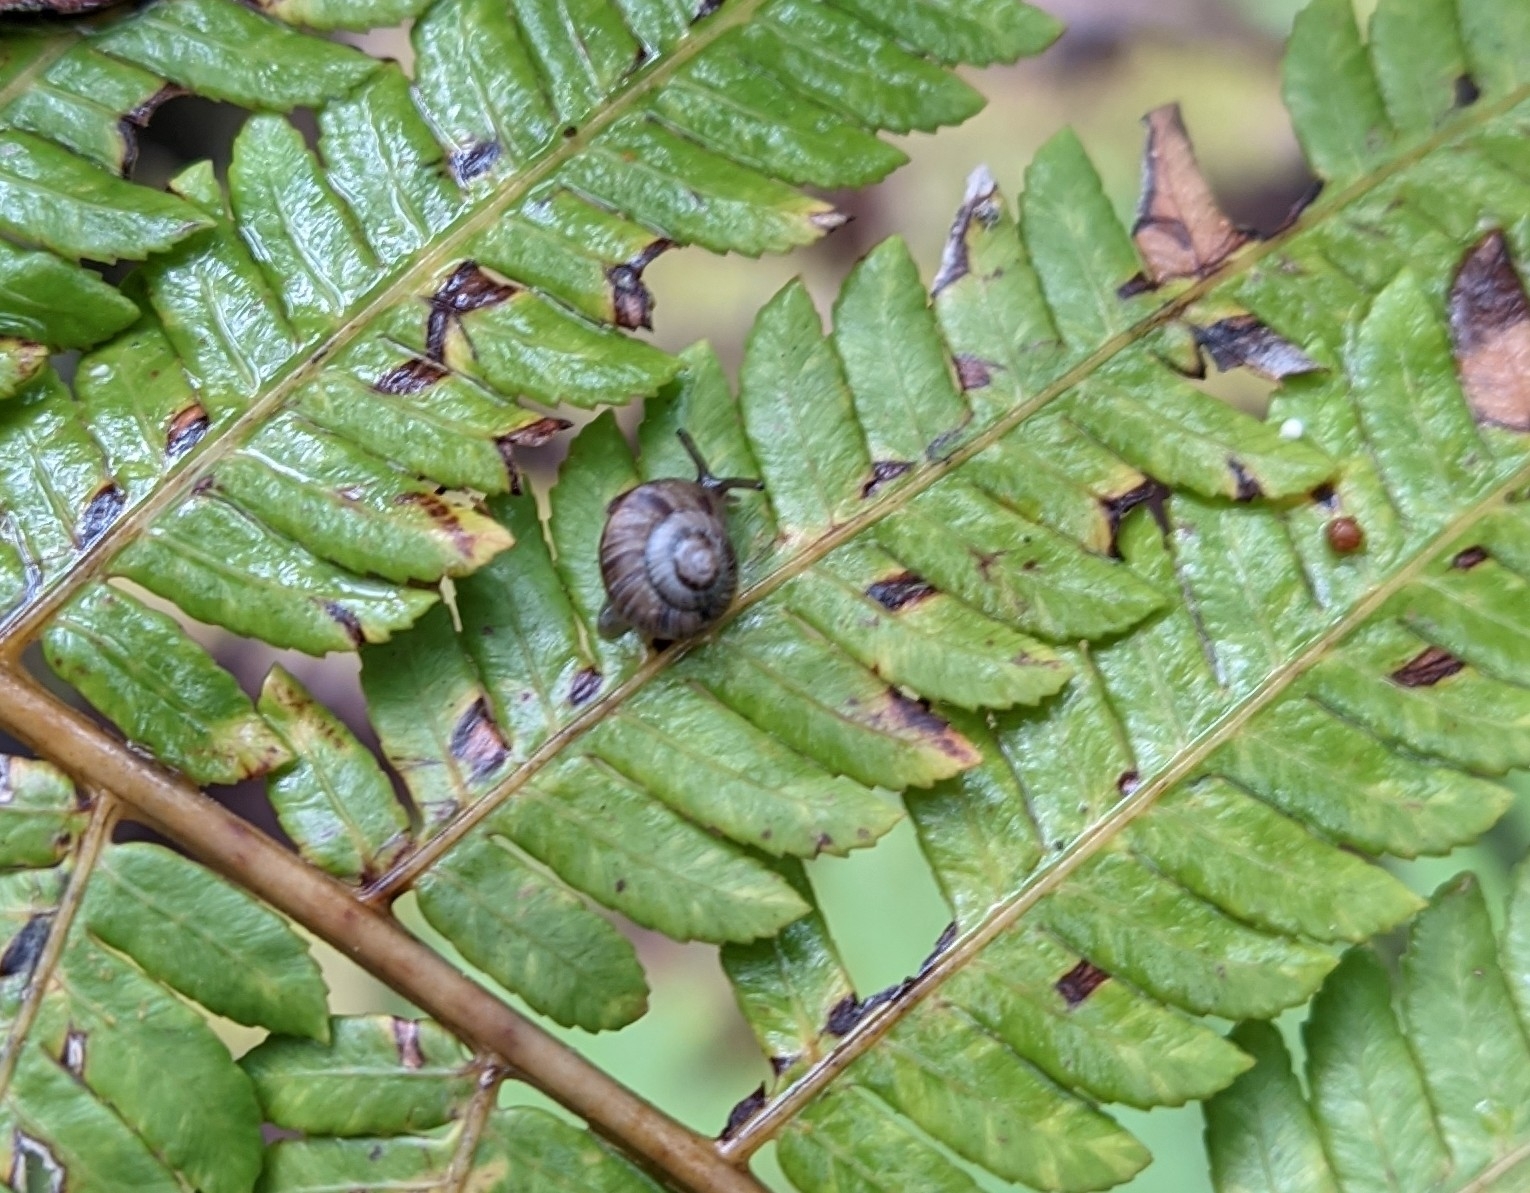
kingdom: Animalia
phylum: Mollusca
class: Gastropoda
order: Stylommatophora
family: Charopidae
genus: Serpho
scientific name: Serpho
